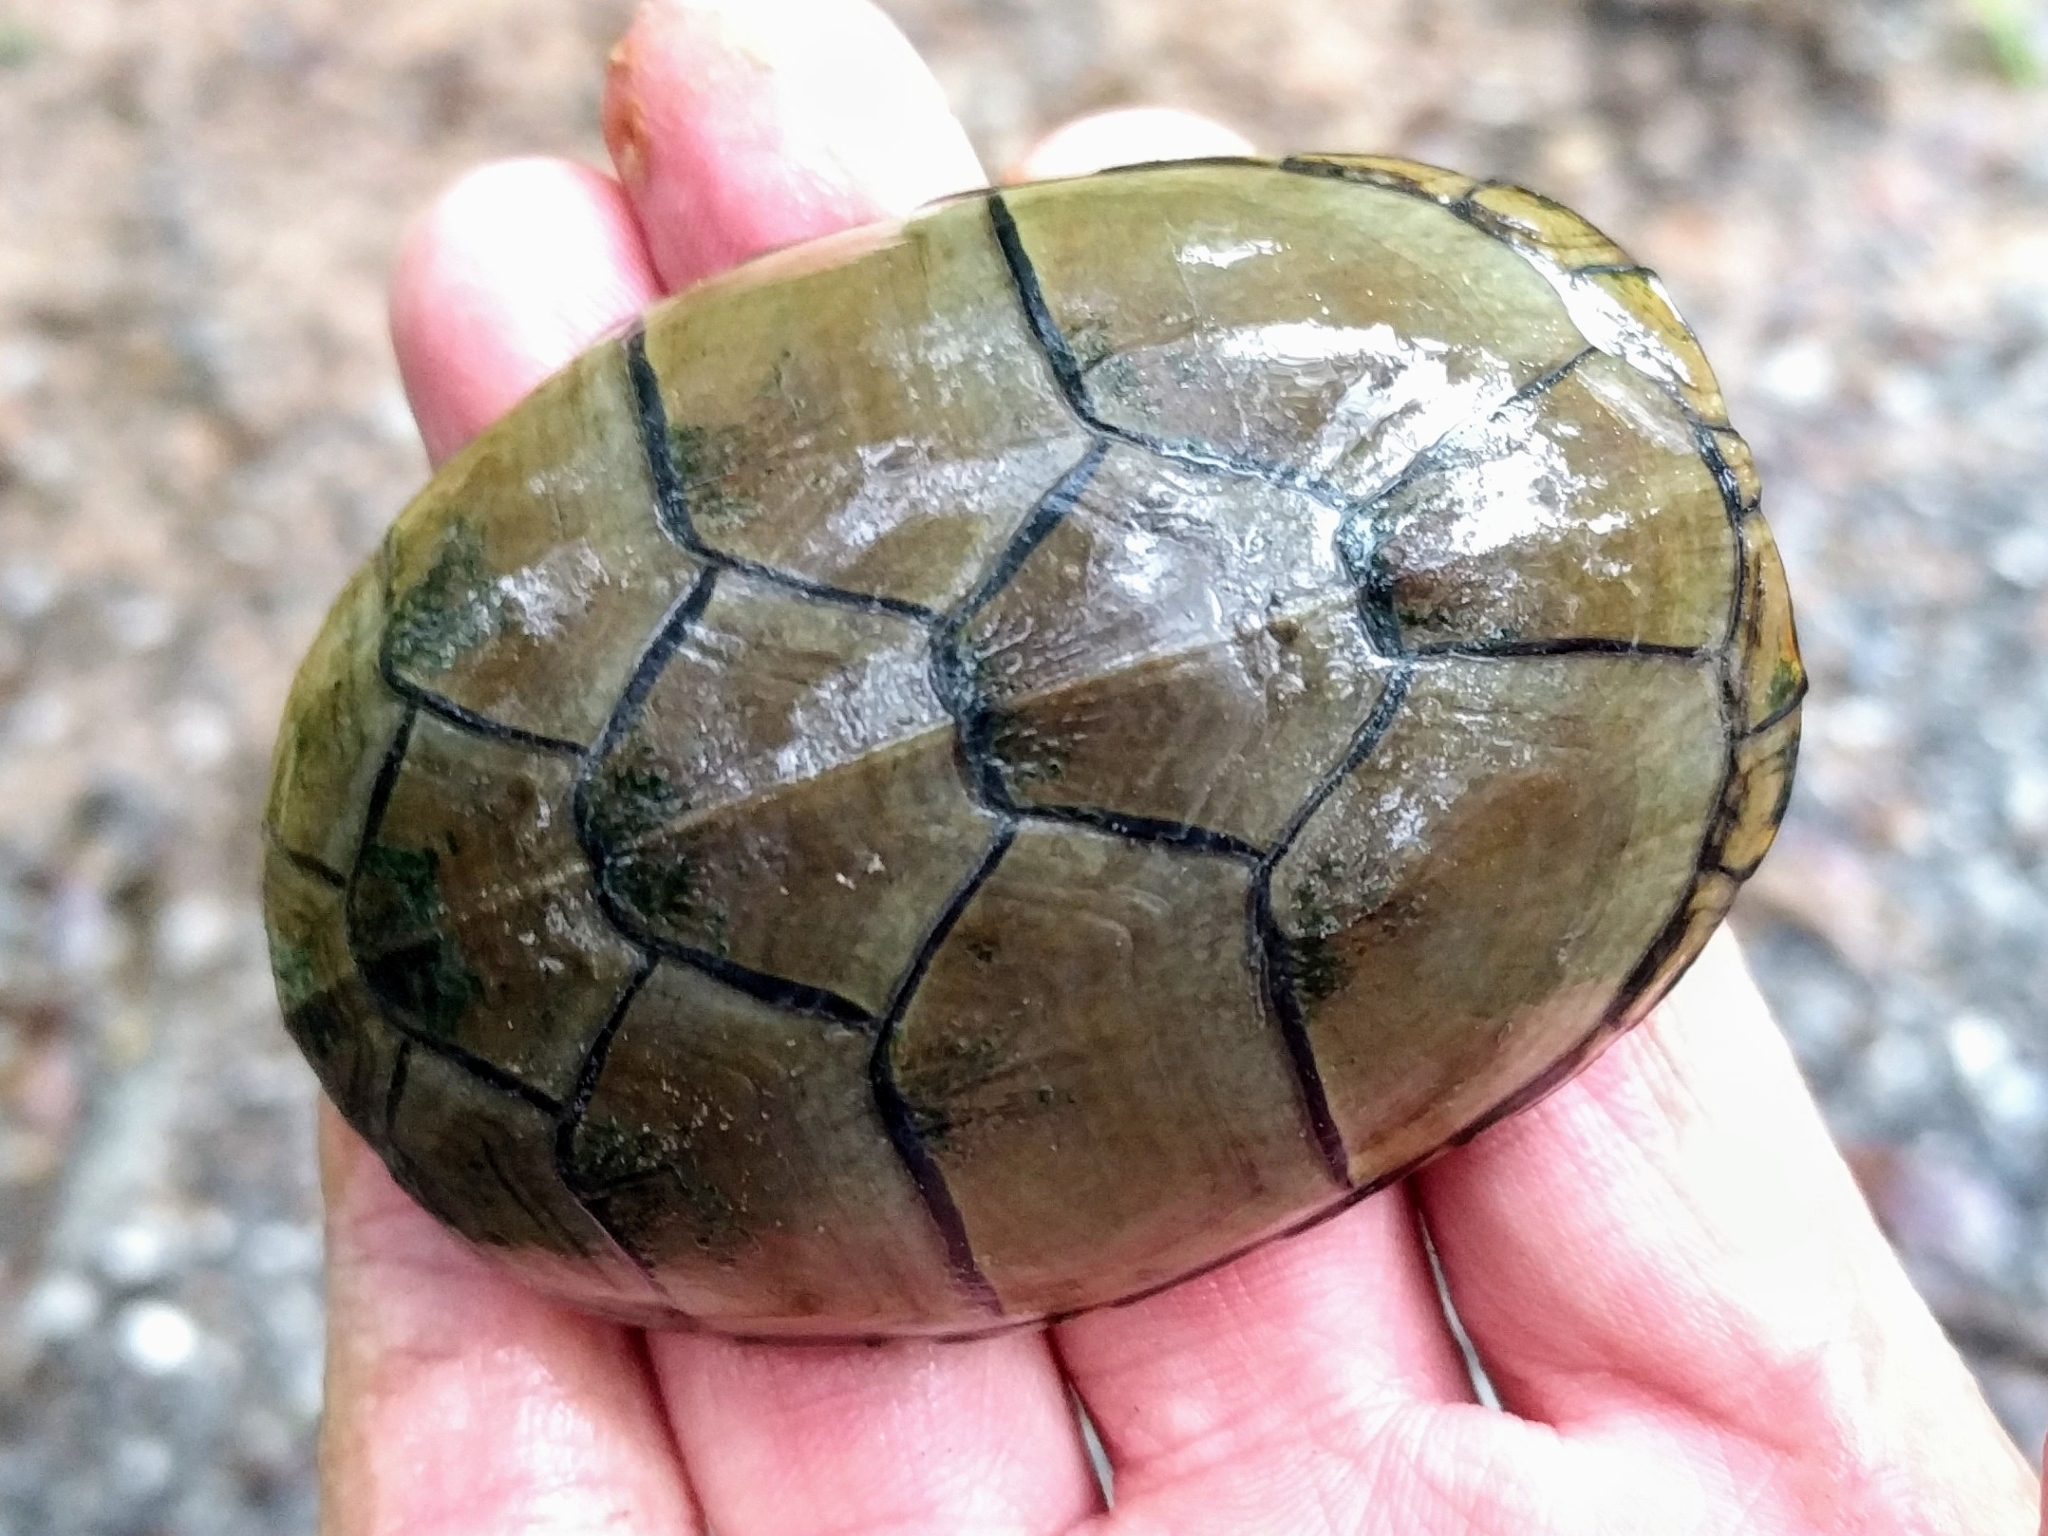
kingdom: Animalia
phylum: Chordata
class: Testudines
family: Kinosternidae
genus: Kinosternon
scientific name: Kinosternon subrubrum
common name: Eastern mud turtle
